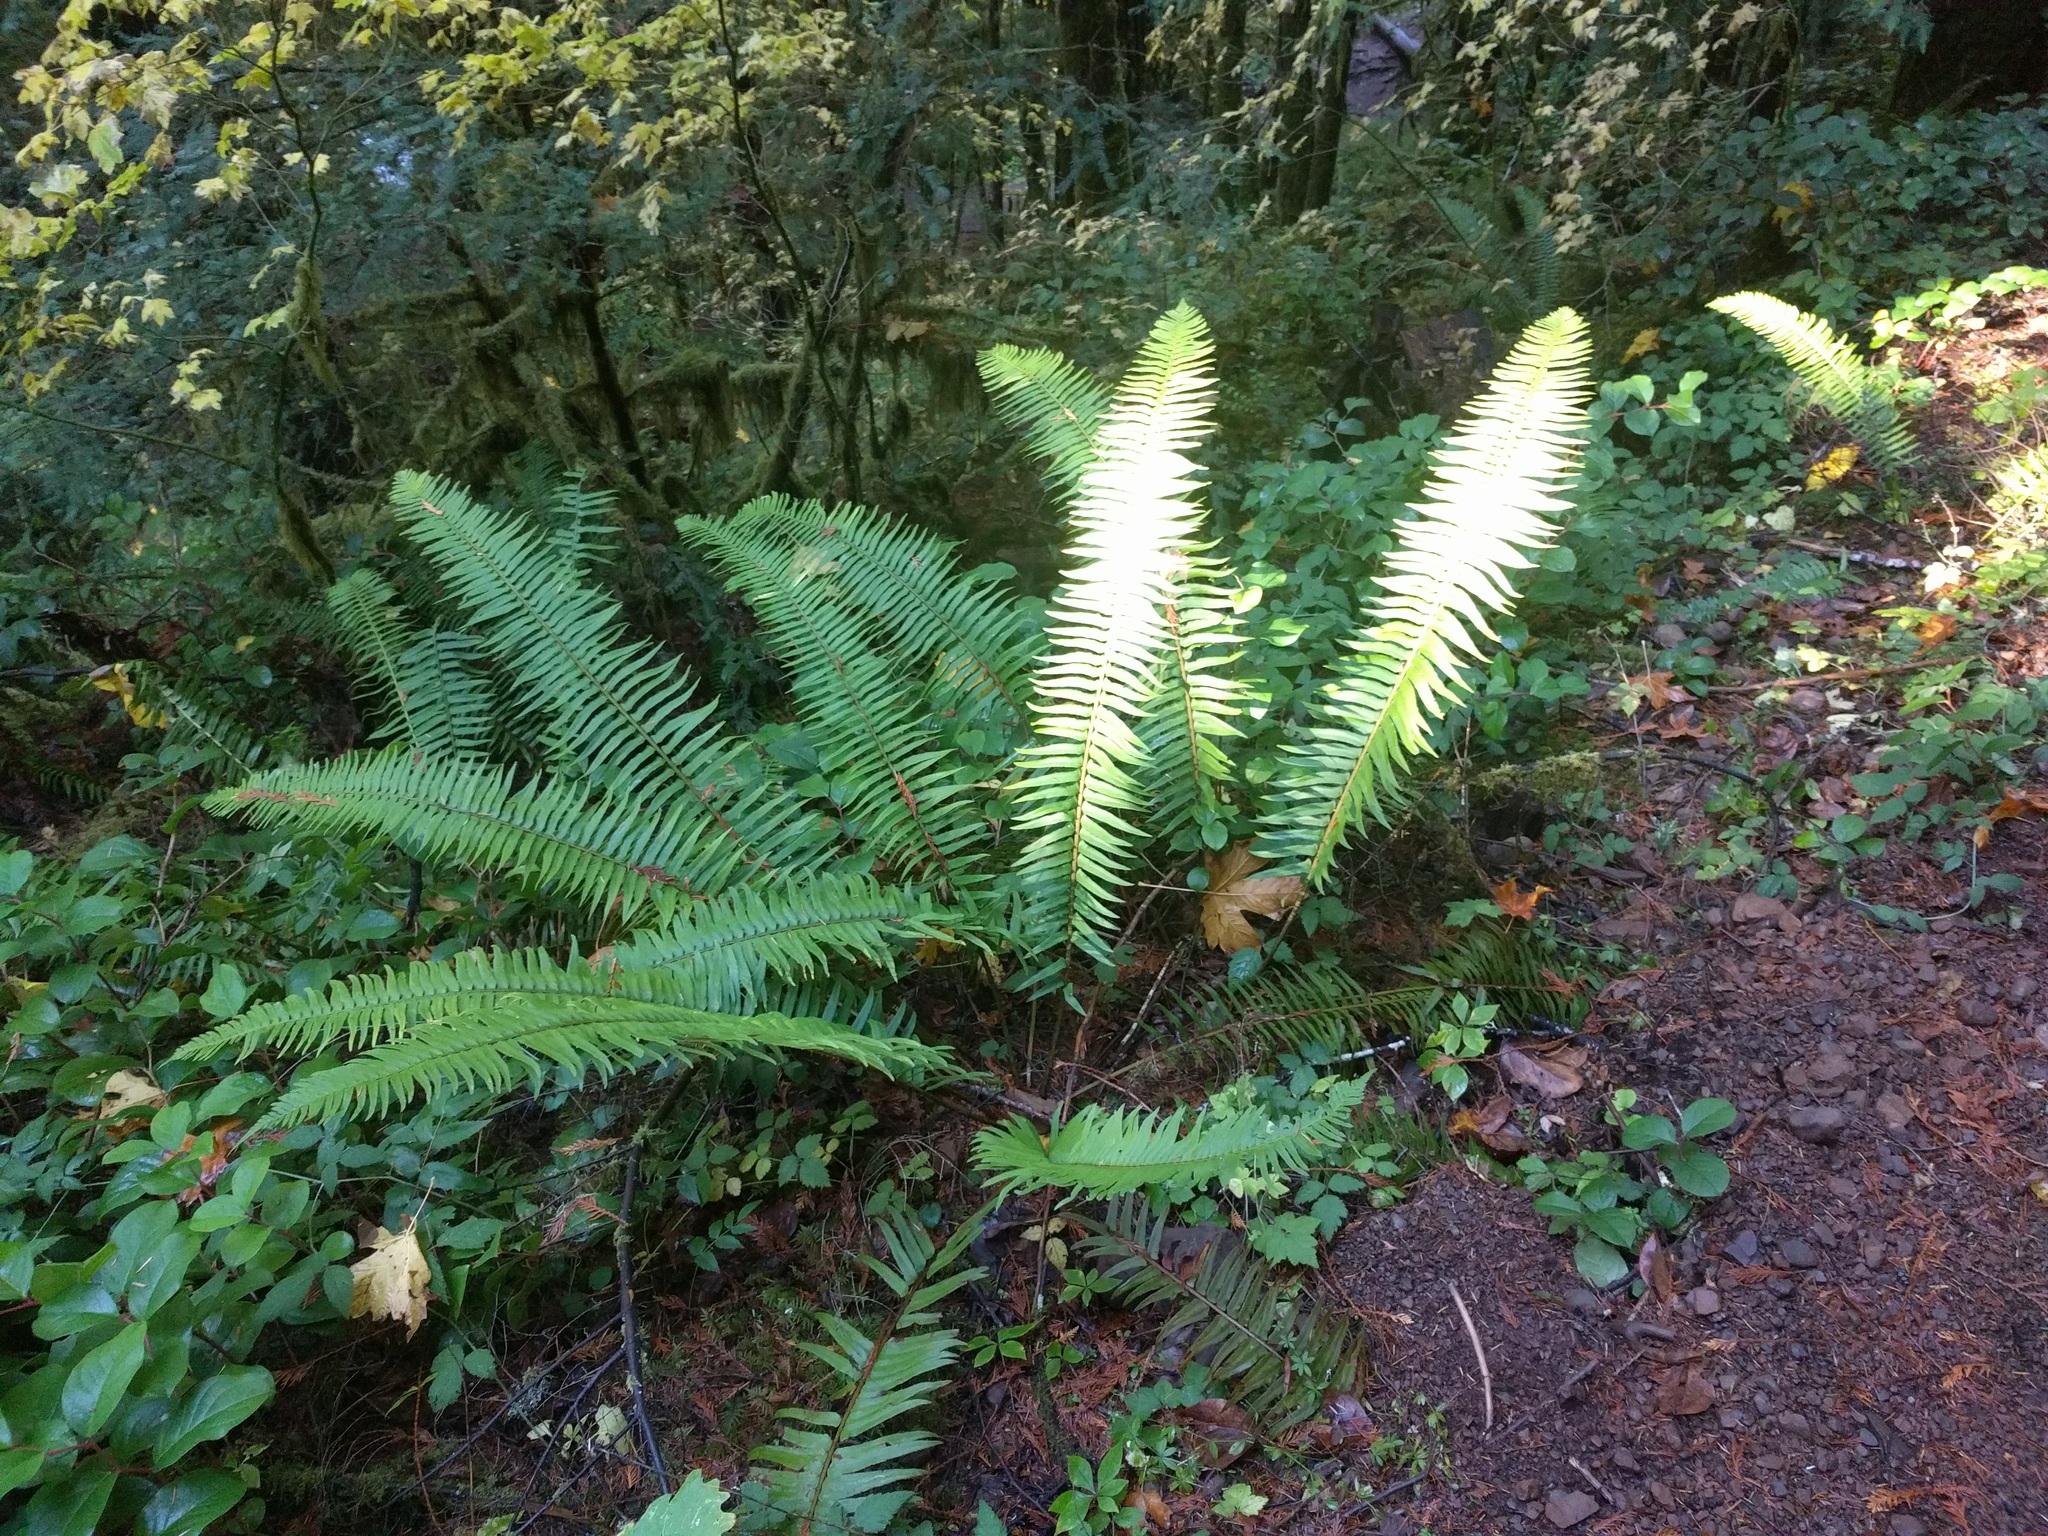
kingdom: Plantae
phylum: Tracheophyta
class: Polypodiopsida
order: Polypodiales
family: Dryopteridaceae
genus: Polystichum
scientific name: Polystichum munitum
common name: Western sword-fern
